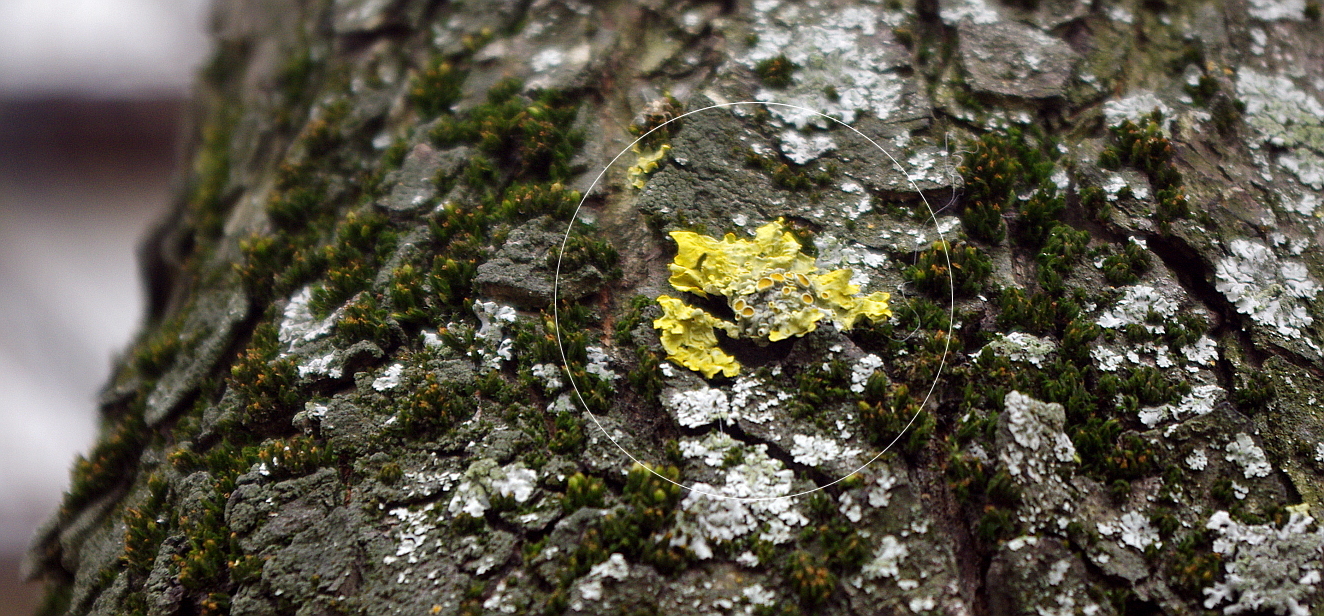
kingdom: Fungi
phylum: Ascomycota
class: Lecanoromycetes
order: Teloschistales
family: Teloschistaceae
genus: Xanthoria
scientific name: Xanthoria parietina
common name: Common orange lichen
